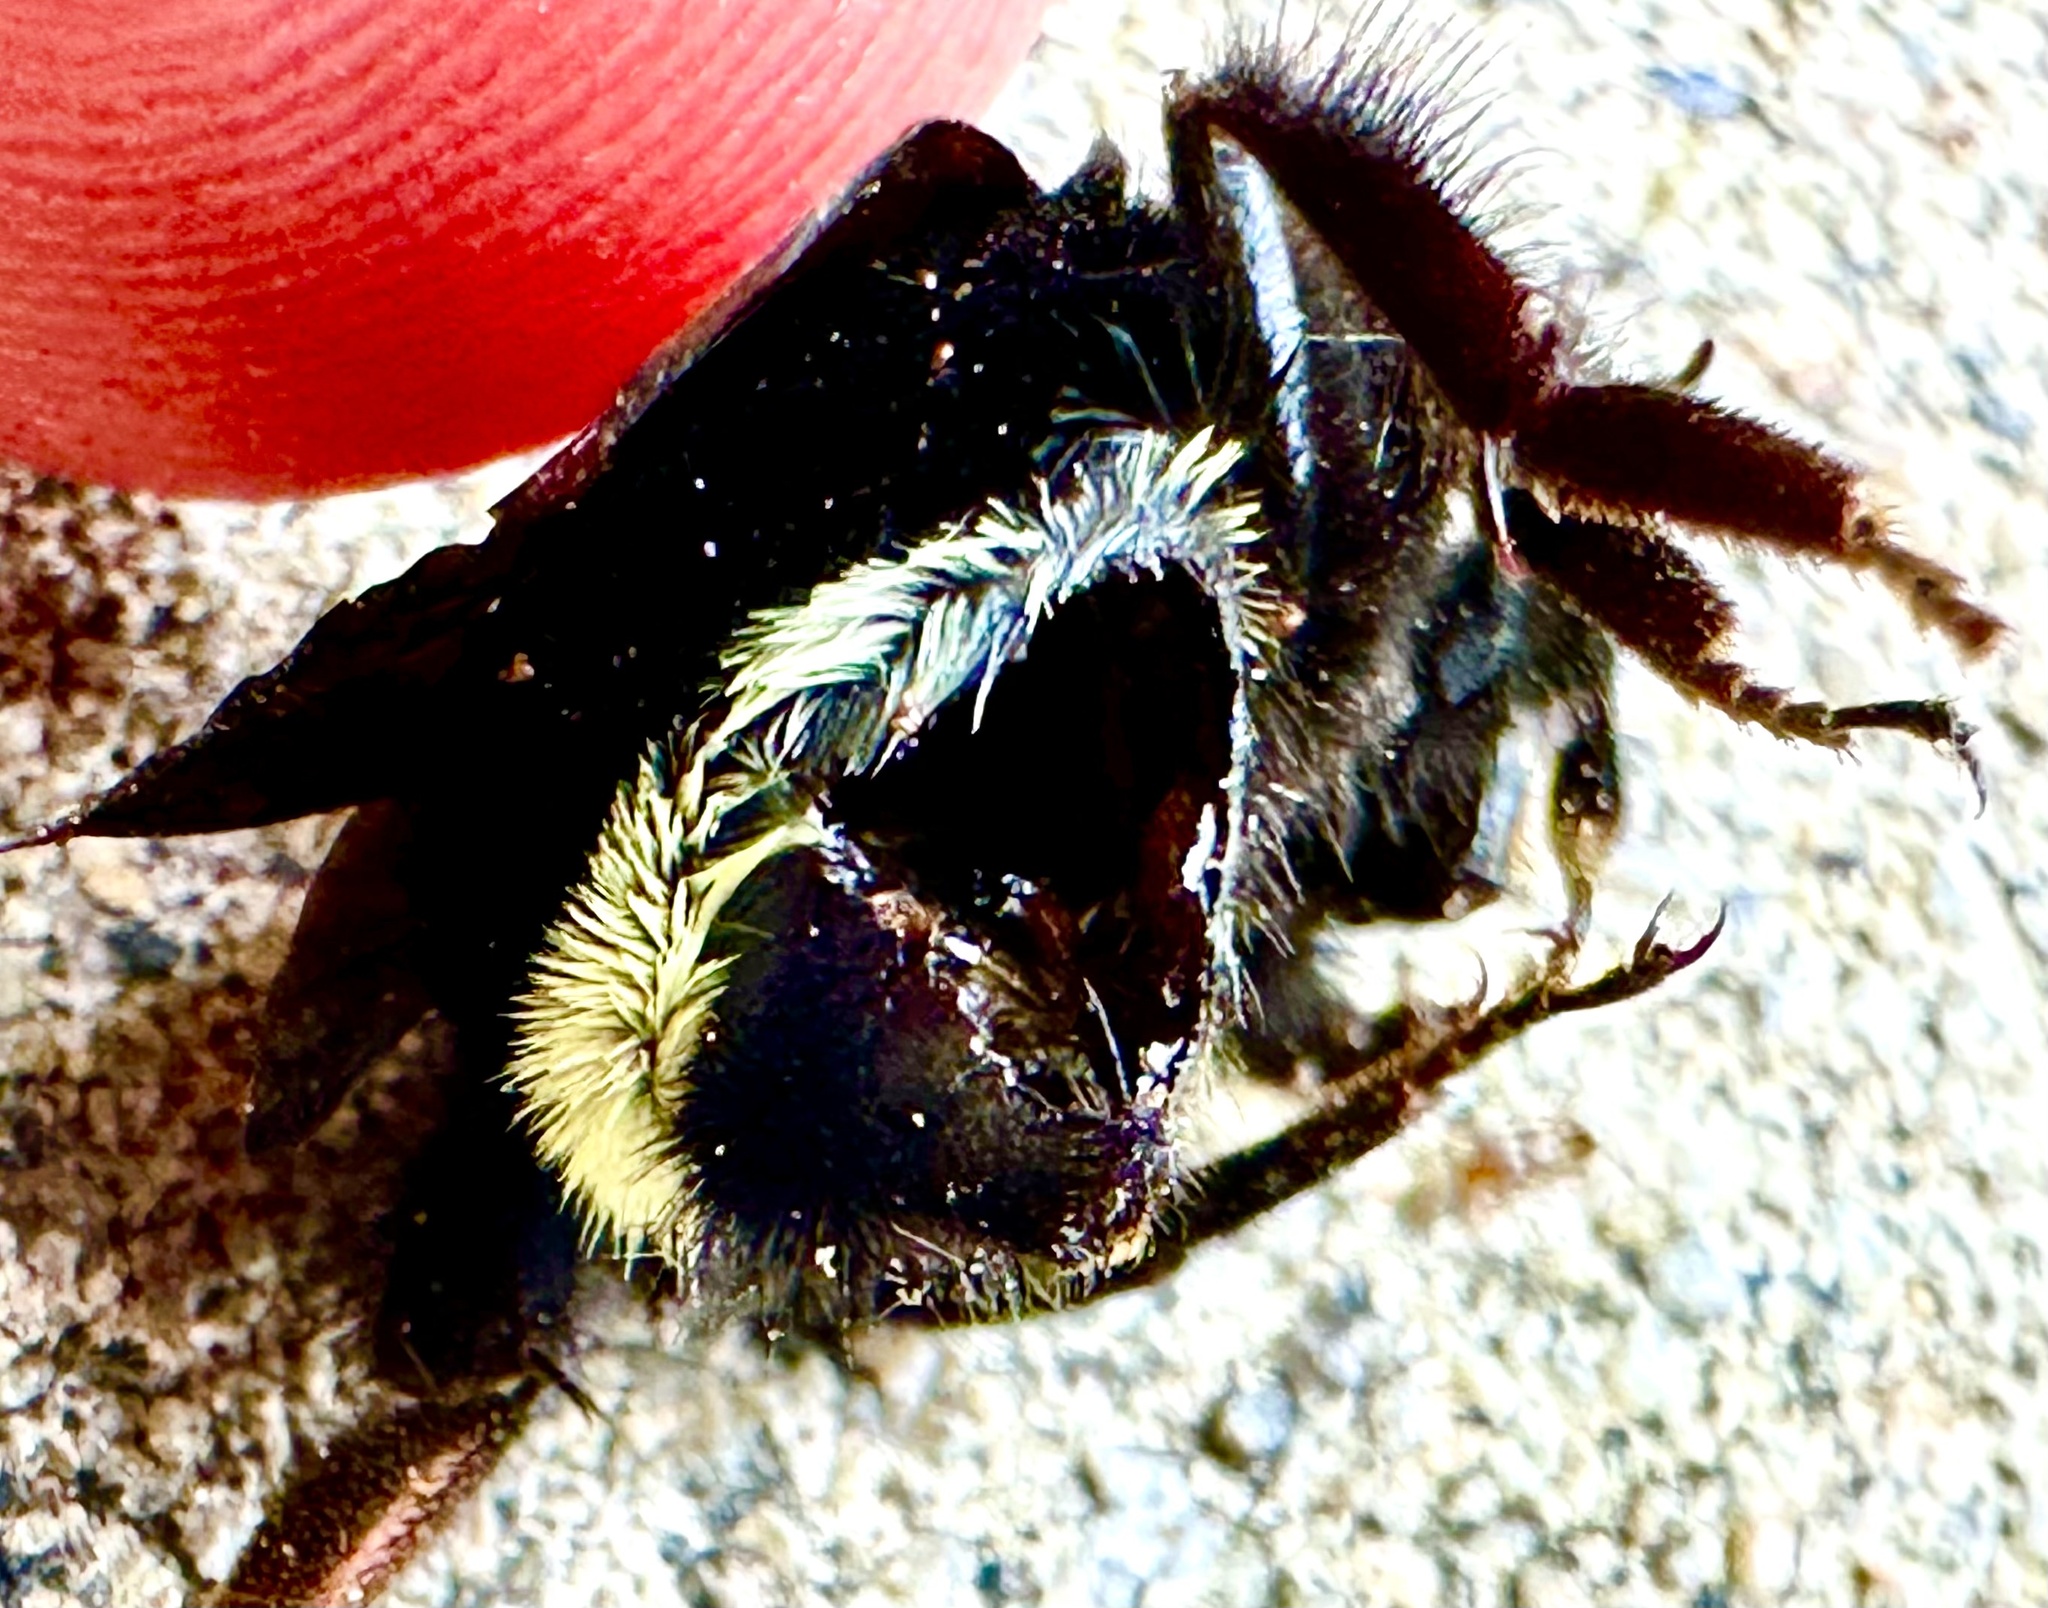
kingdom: Animalia
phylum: Arthropoda
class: Insecta
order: Hymenoptera
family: Apidae
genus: Bombus
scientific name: Bombus vosnesenskii
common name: Vosnesensky bumble bee
